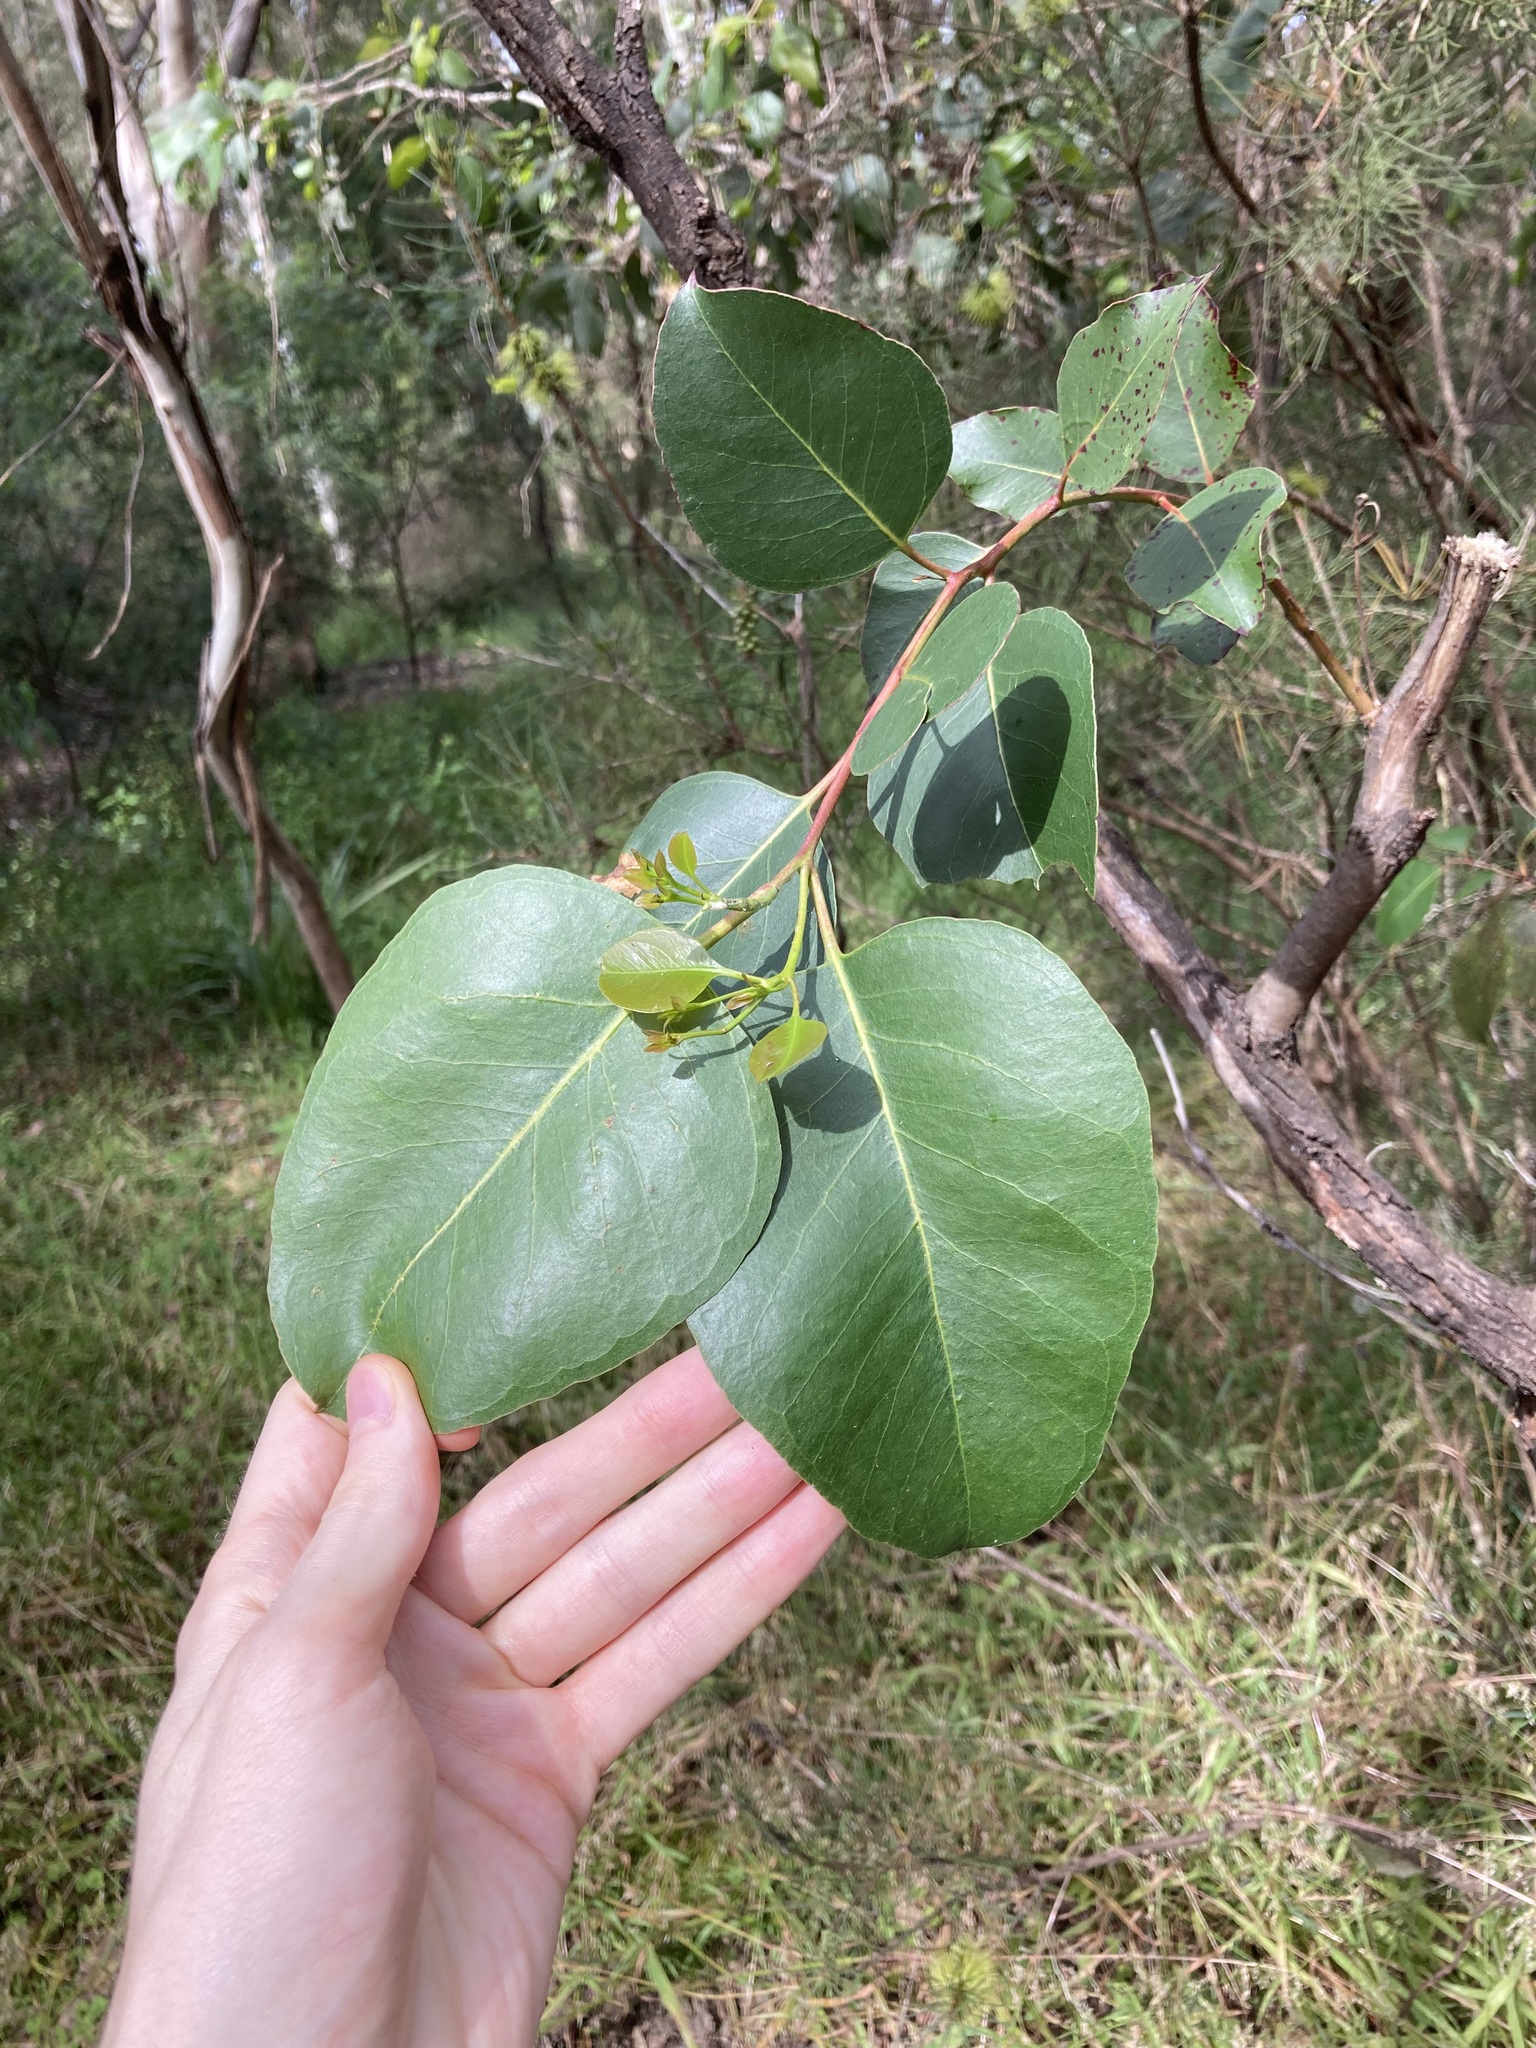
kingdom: Plantae
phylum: Tracheophyta
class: Magnoliopsida
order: Myrtales
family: Myrtaceae
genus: Eucalyptus
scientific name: Eucalyptus amplifolia
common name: Cabbage gum
